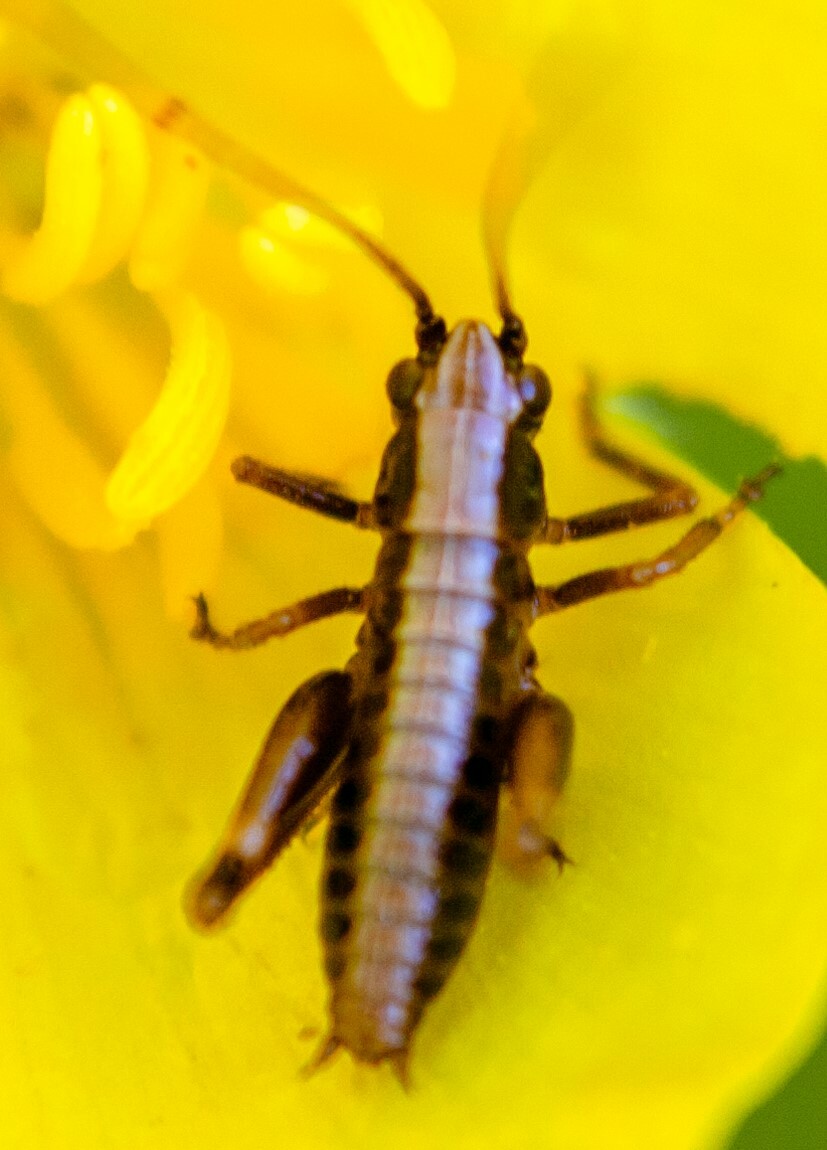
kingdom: Animalia
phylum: Arthropoda
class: Insecta
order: Orthoptera
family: Tettigoniidae
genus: Pholidoptera
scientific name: Pholidoptera griseoaptera
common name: Dark bush-cricket
